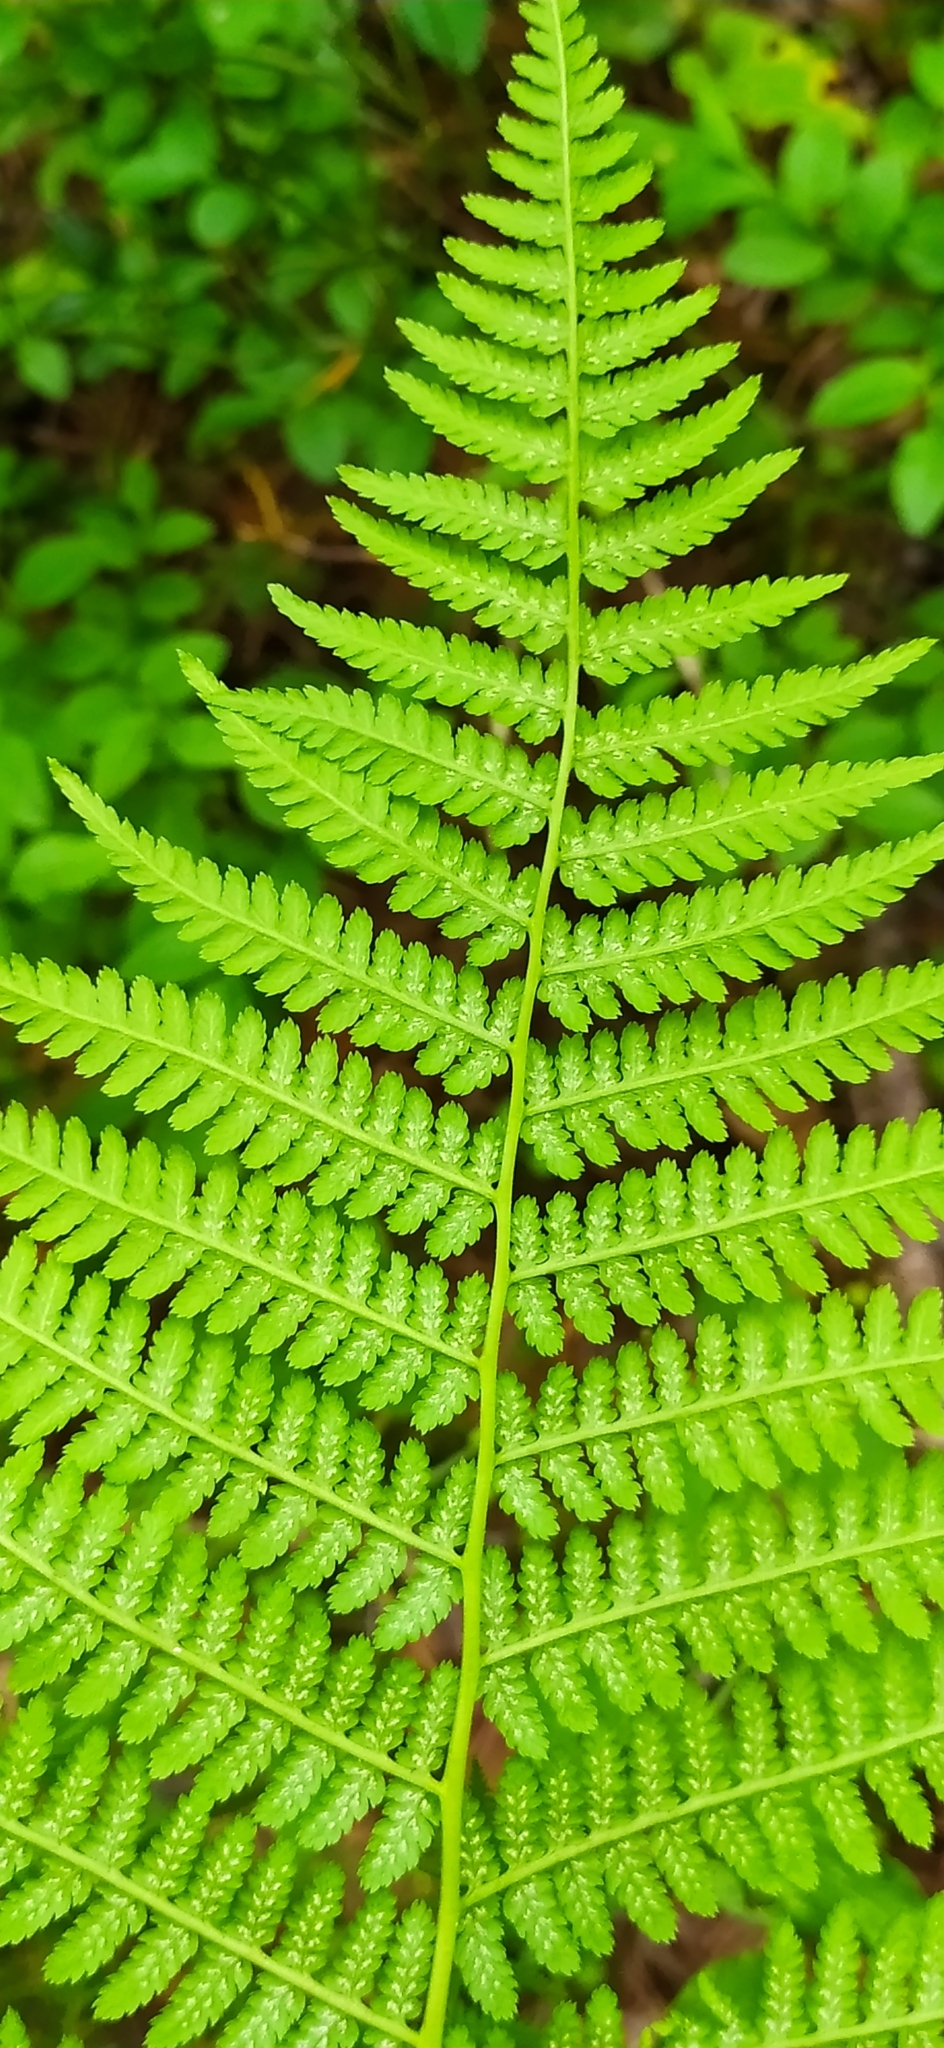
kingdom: Plantae
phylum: Tracheophyta
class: Polypodiopsida
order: Polypodiales
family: Athyriaceae
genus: Athyrium
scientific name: Athyrium filix-femina
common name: Lady fern
